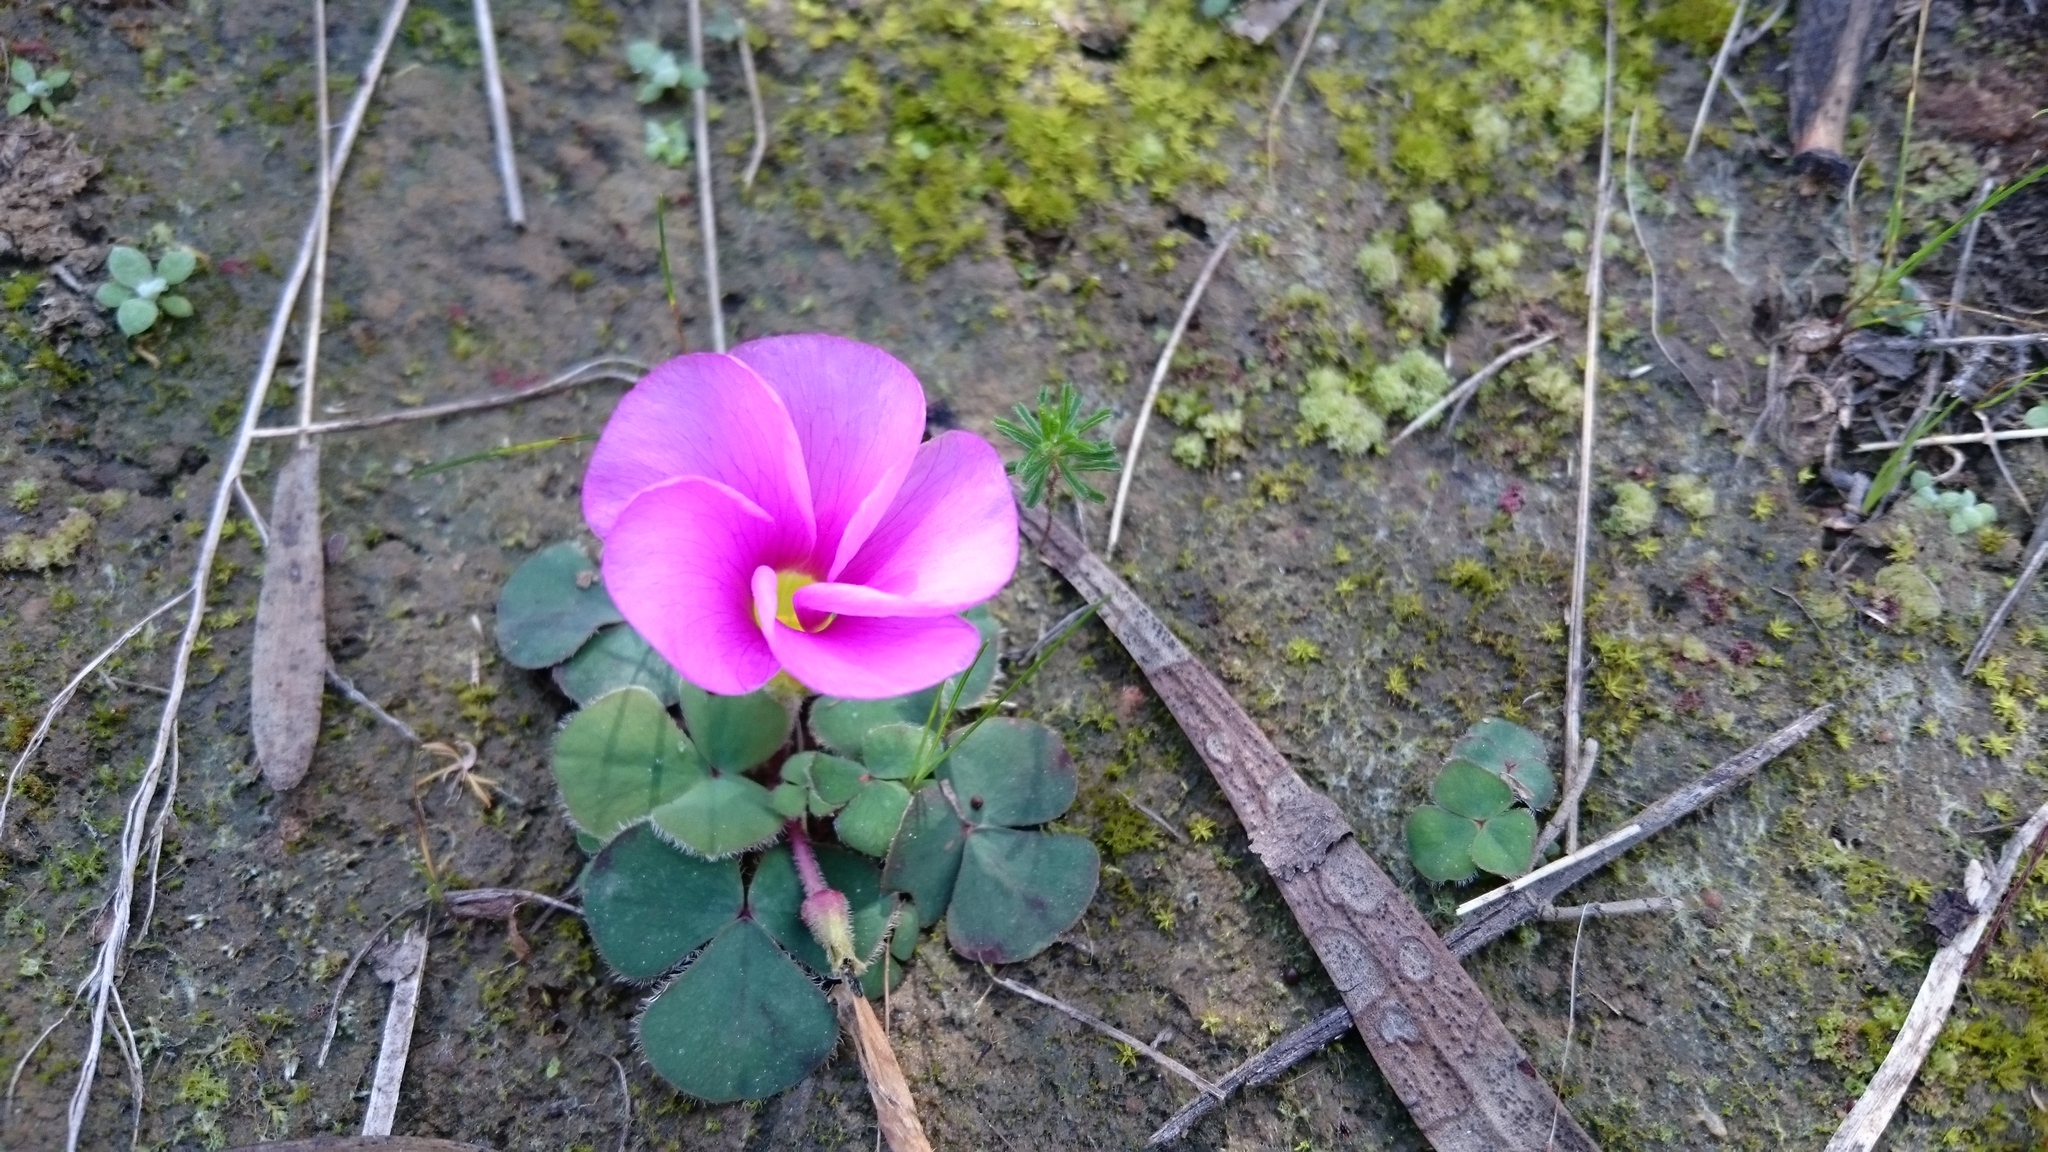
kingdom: Plantae
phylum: Tracheophyta
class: Magnoliopsida
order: Oxalidales
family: Oxalidaceae
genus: Oxalis
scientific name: Oxalis purpurea
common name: Purple woodsorrel
